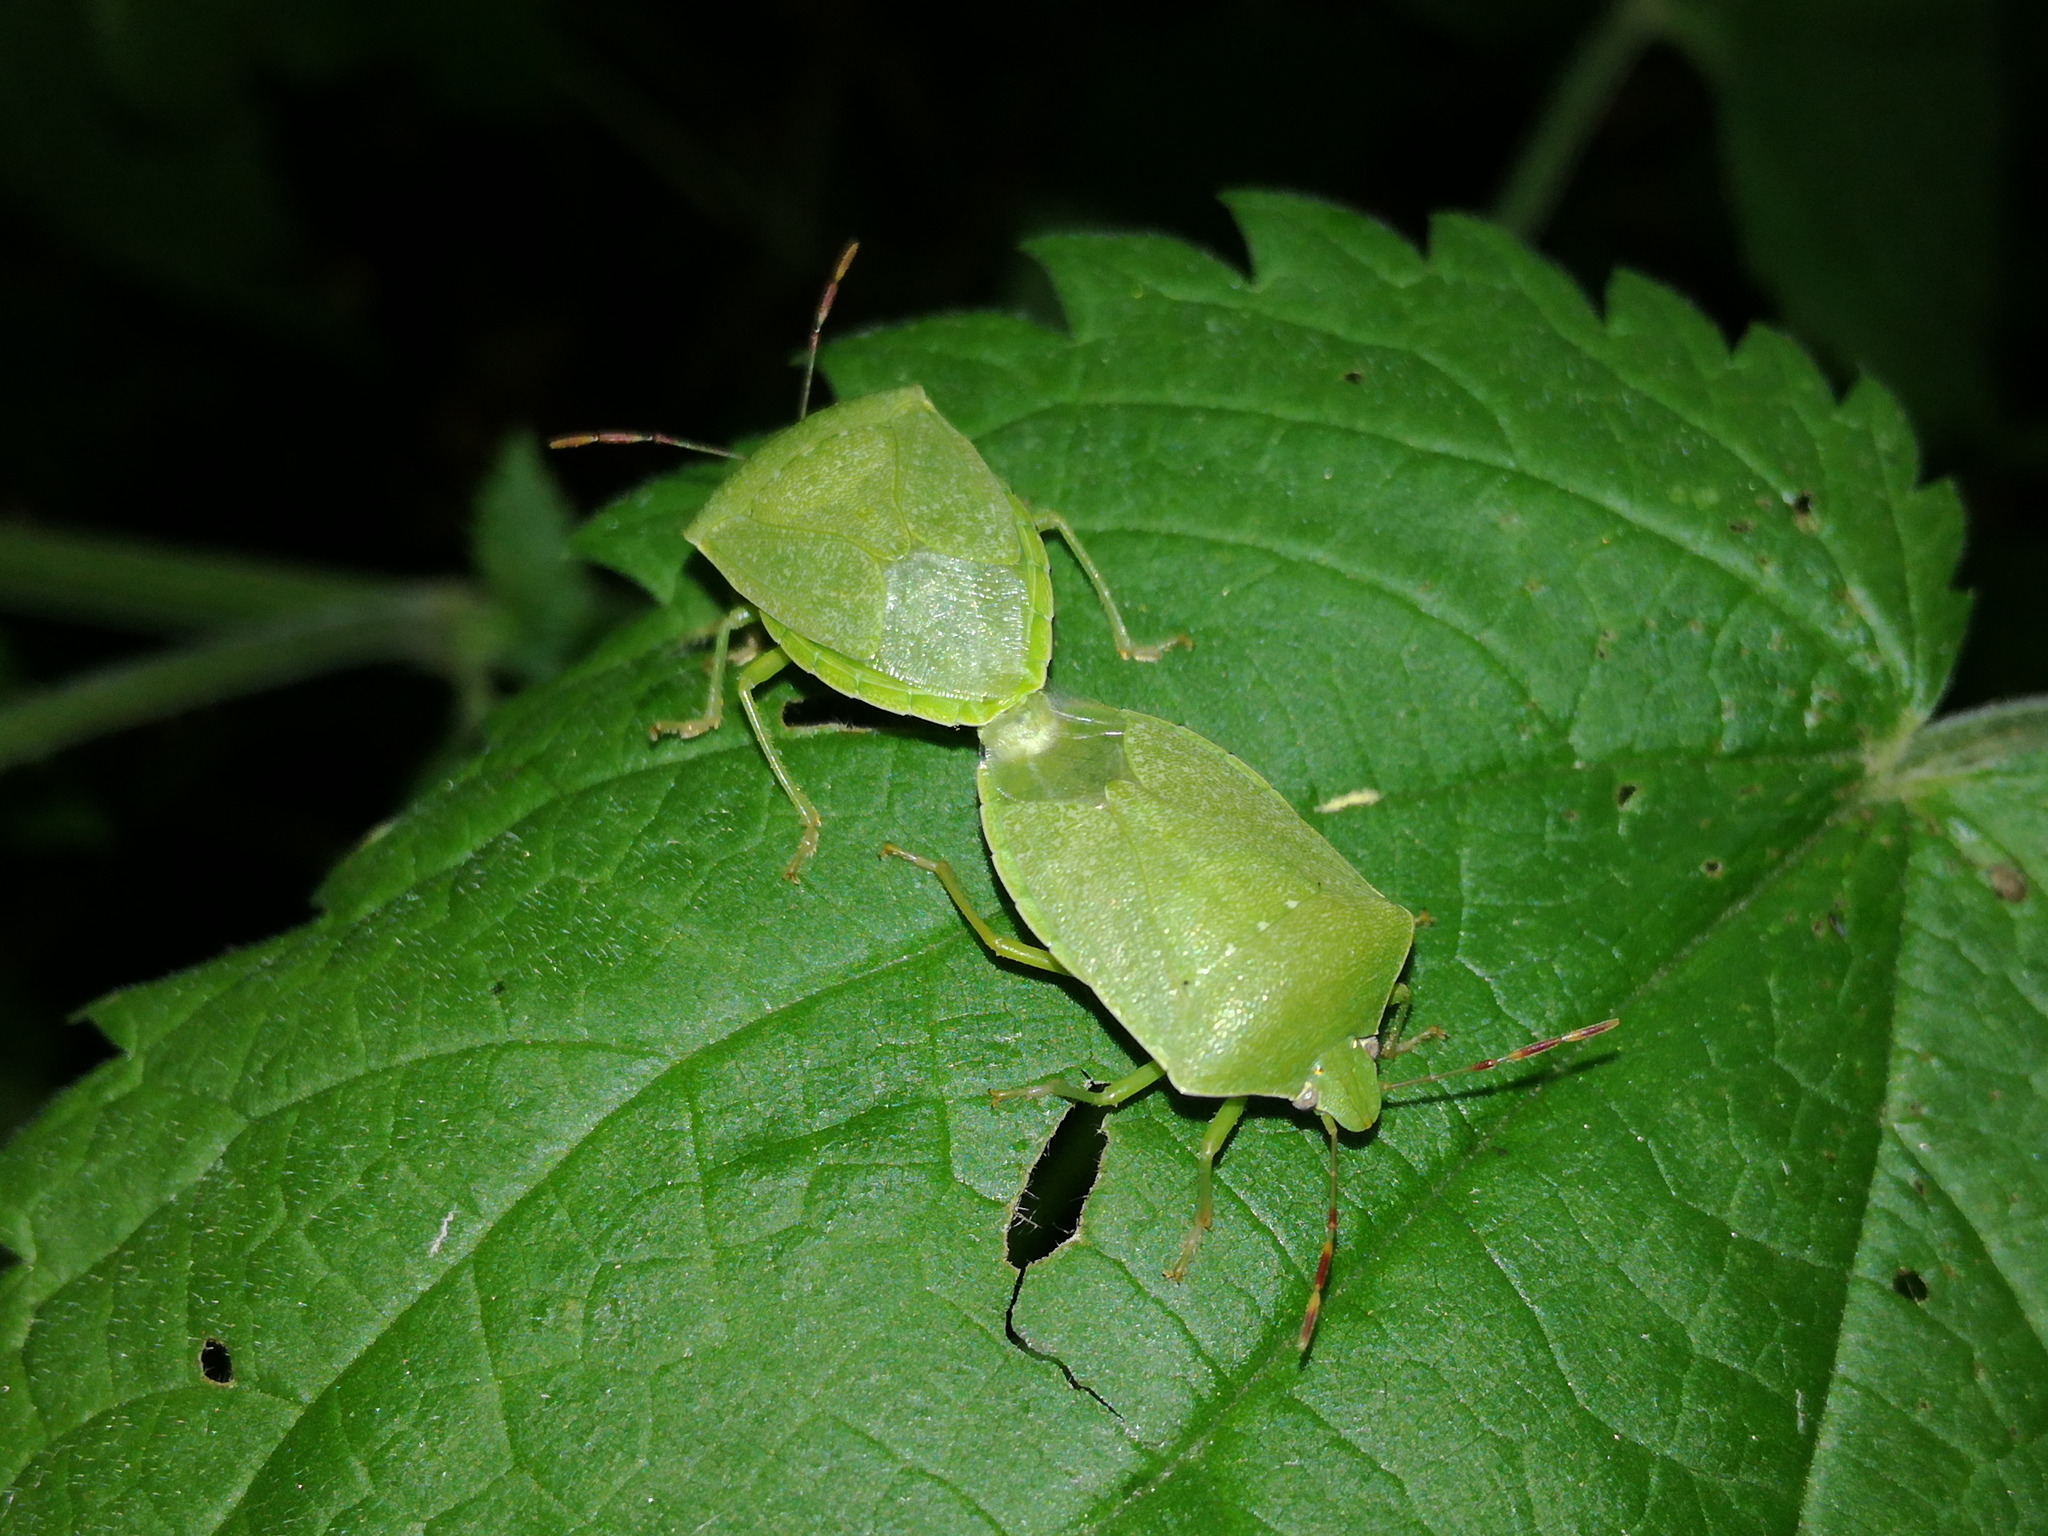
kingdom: Animalia
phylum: Arthropoda
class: Insecta
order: Hemiptera
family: Pentatomidae
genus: Nezara
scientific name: Nezara viridula
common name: Southern green stink bug
